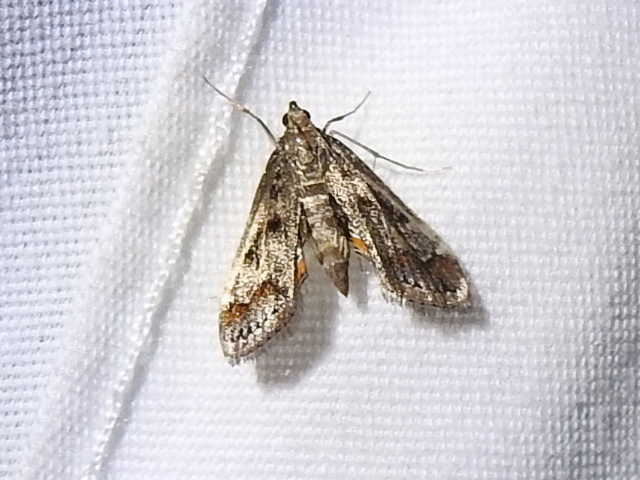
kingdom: Animalia
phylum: Arthropoda
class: Insecta
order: Lepidoptera
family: Crambidae
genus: Parapoynx
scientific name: Parapoynx obscuralis
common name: American china-mark
